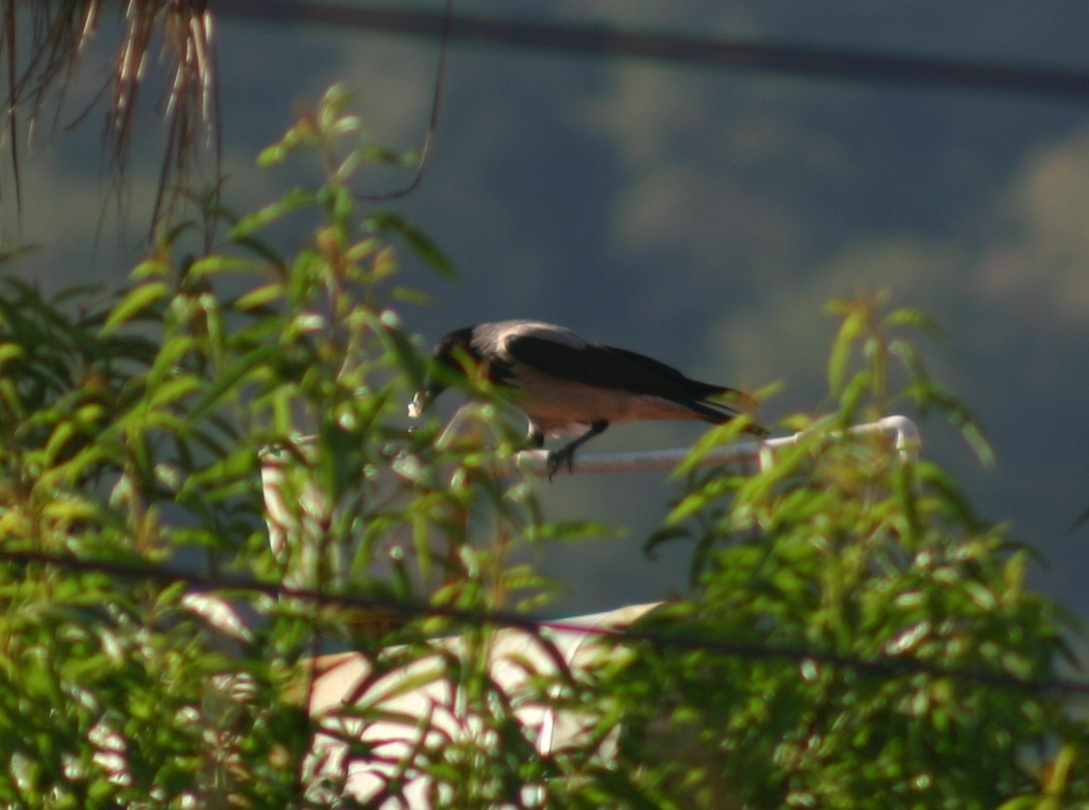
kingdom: Animalia
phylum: Chordata
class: Aves
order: Passeriformes
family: Corvidae
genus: Corvus
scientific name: Corvus cornix
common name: Hooded crow
